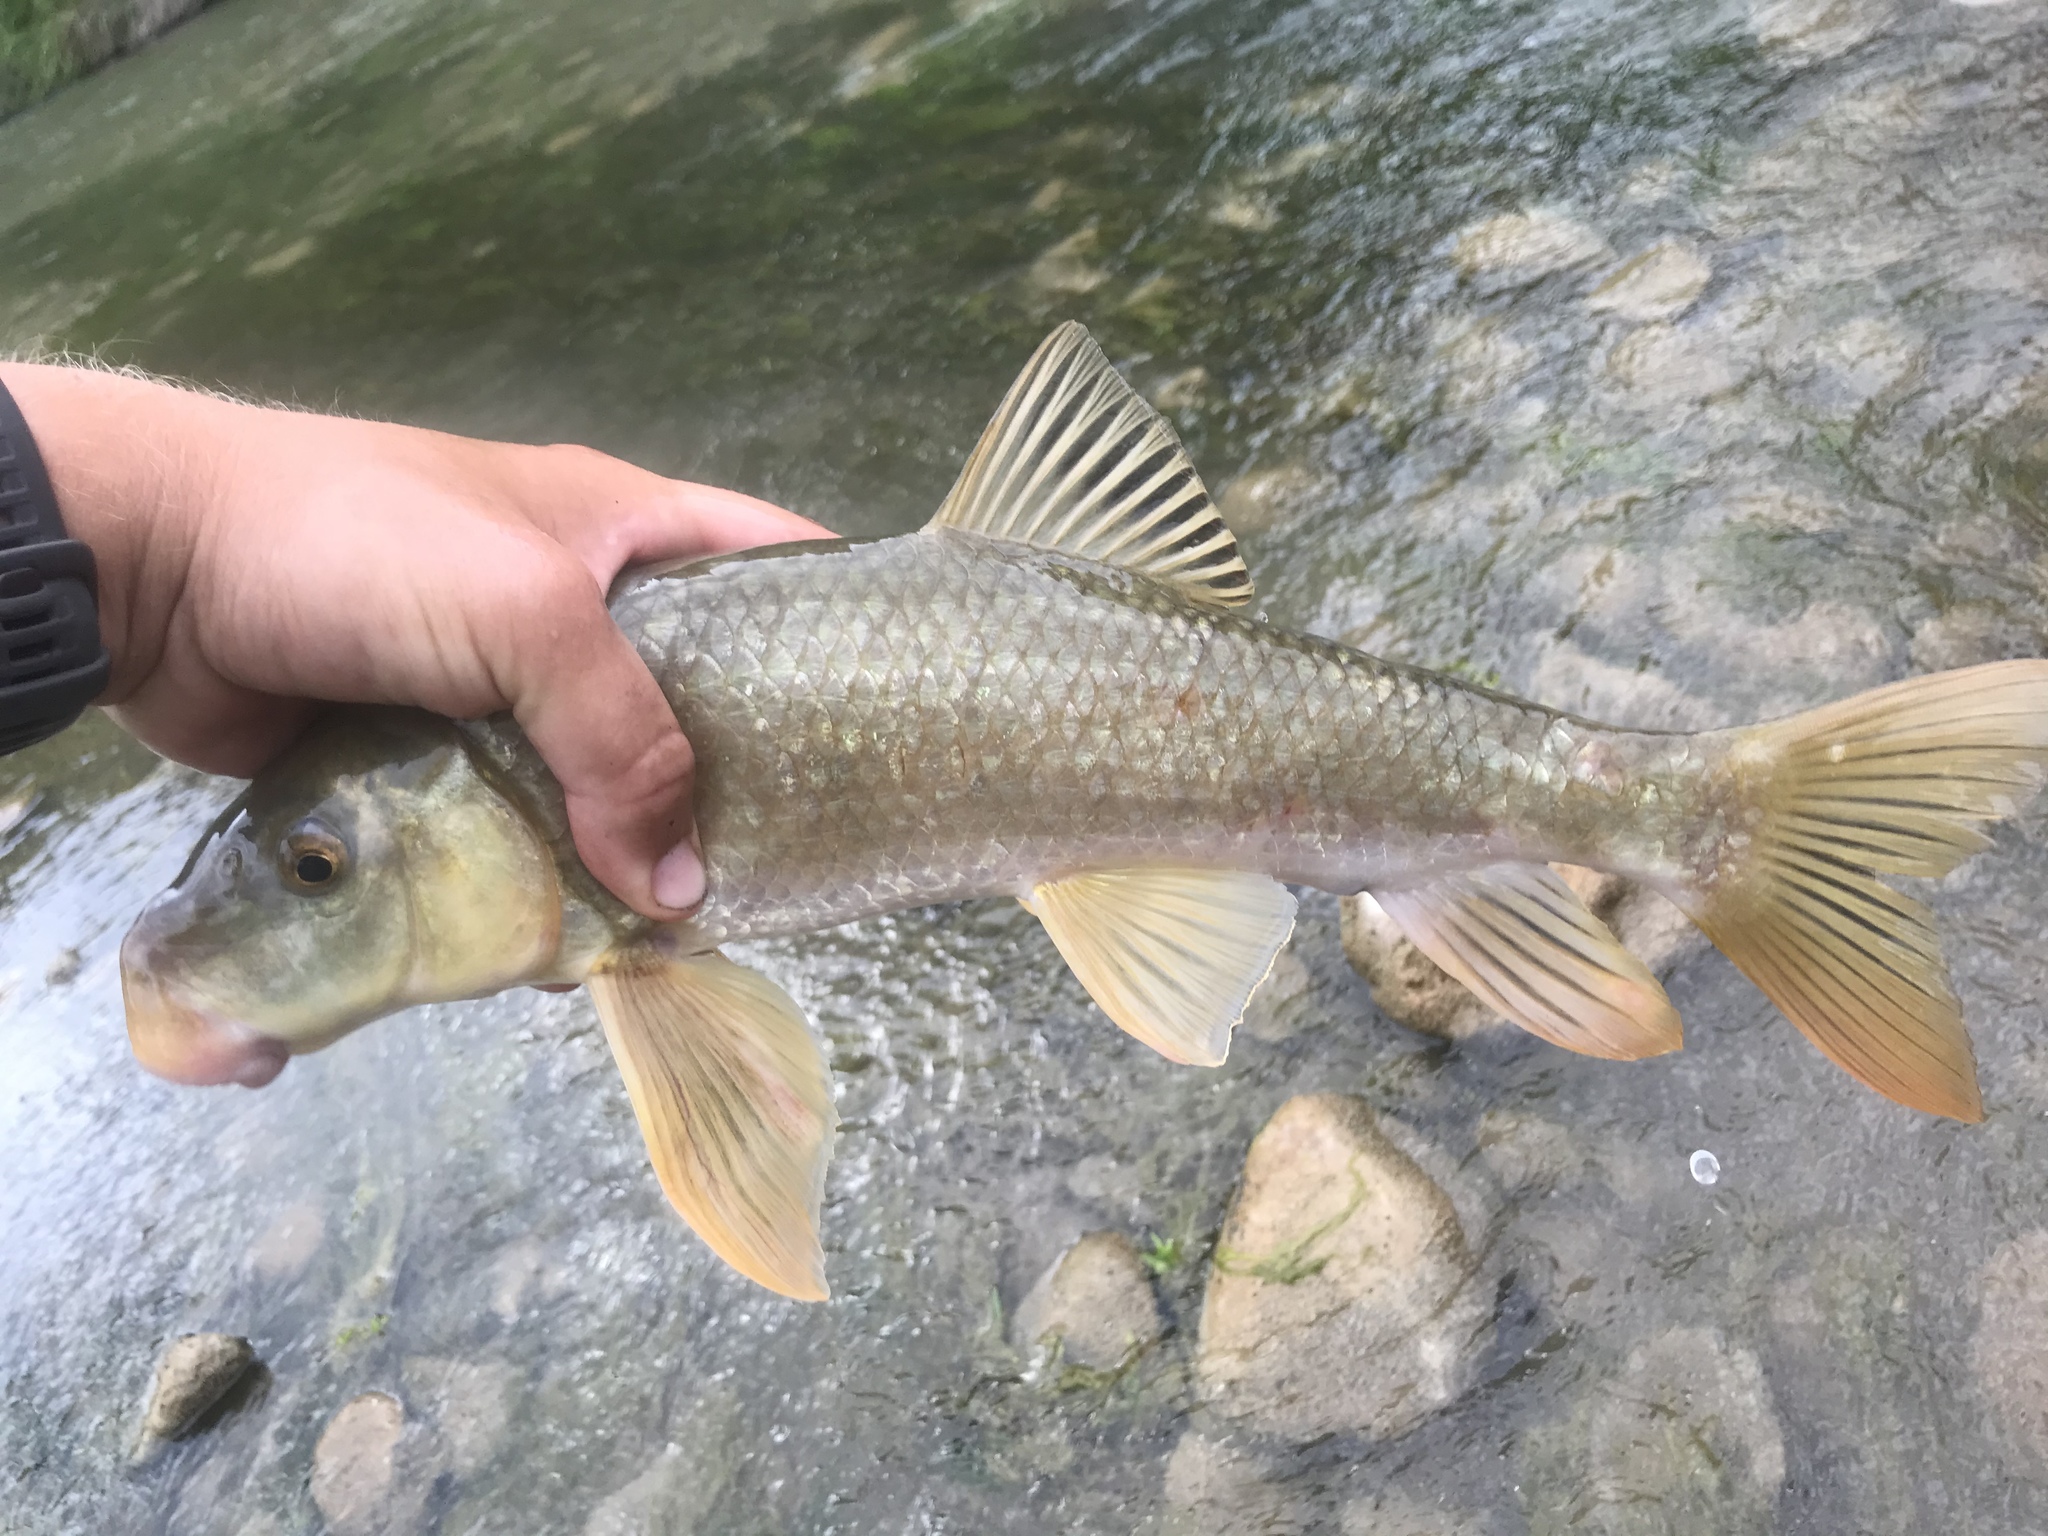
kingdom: Animalia
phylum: Chordata
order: Cypriniformes
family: Catostomidae
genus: Moxostoma
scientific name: Moxostoma congestum
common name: Gray redhorse
